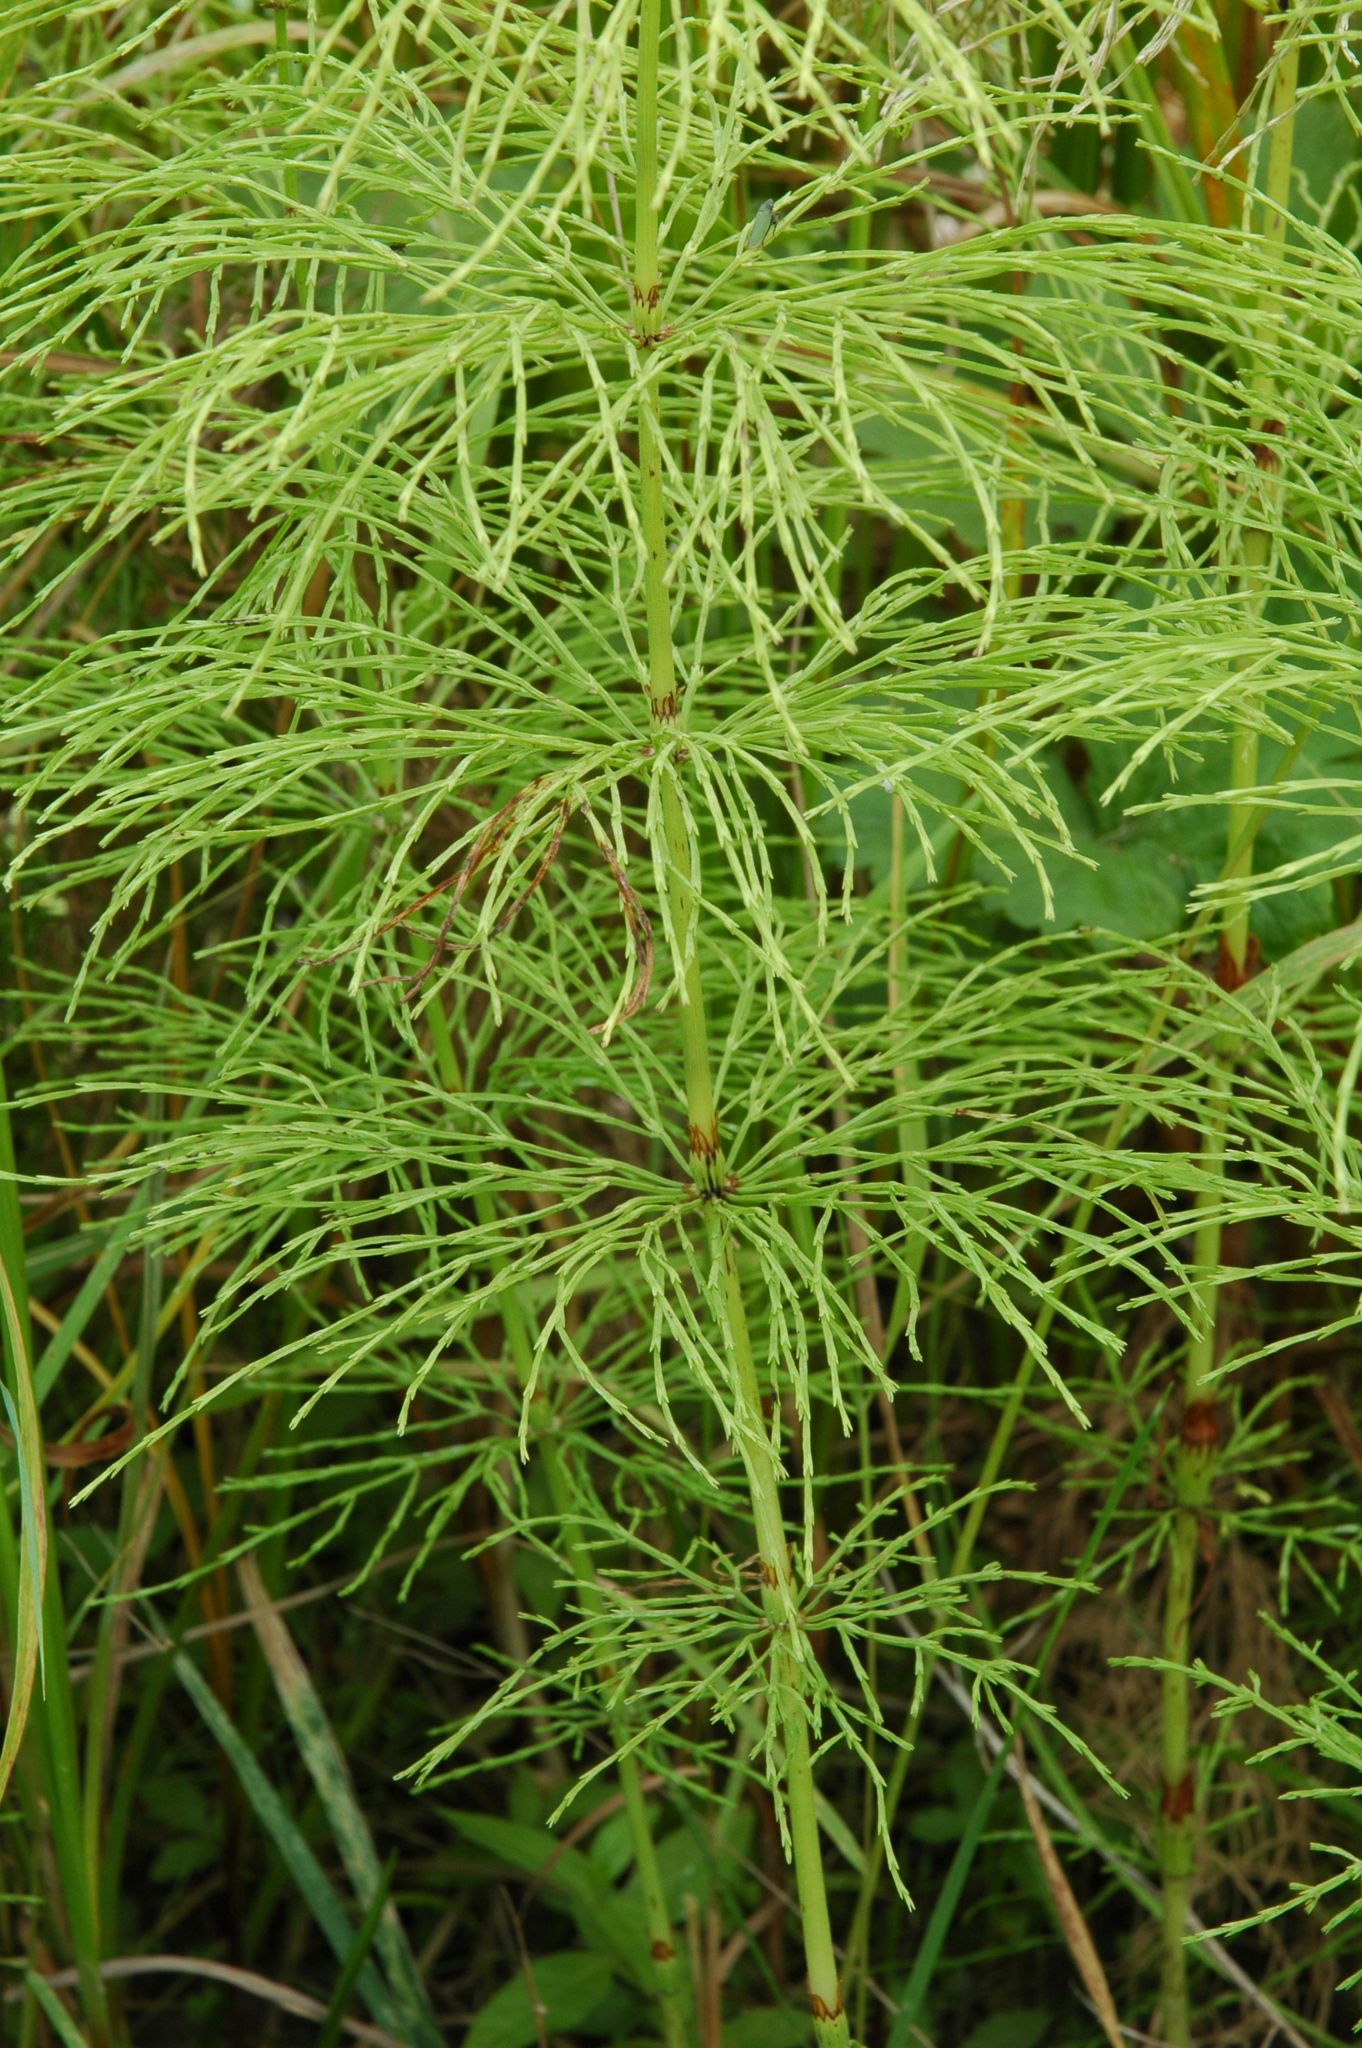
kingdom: Plantae
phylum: Tracheophyta
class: Polypodiopsida
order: Equisetales
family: Equisetaceae
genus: Equisetum
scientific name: Equisetum sylvaticum
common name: Wood horsetail
